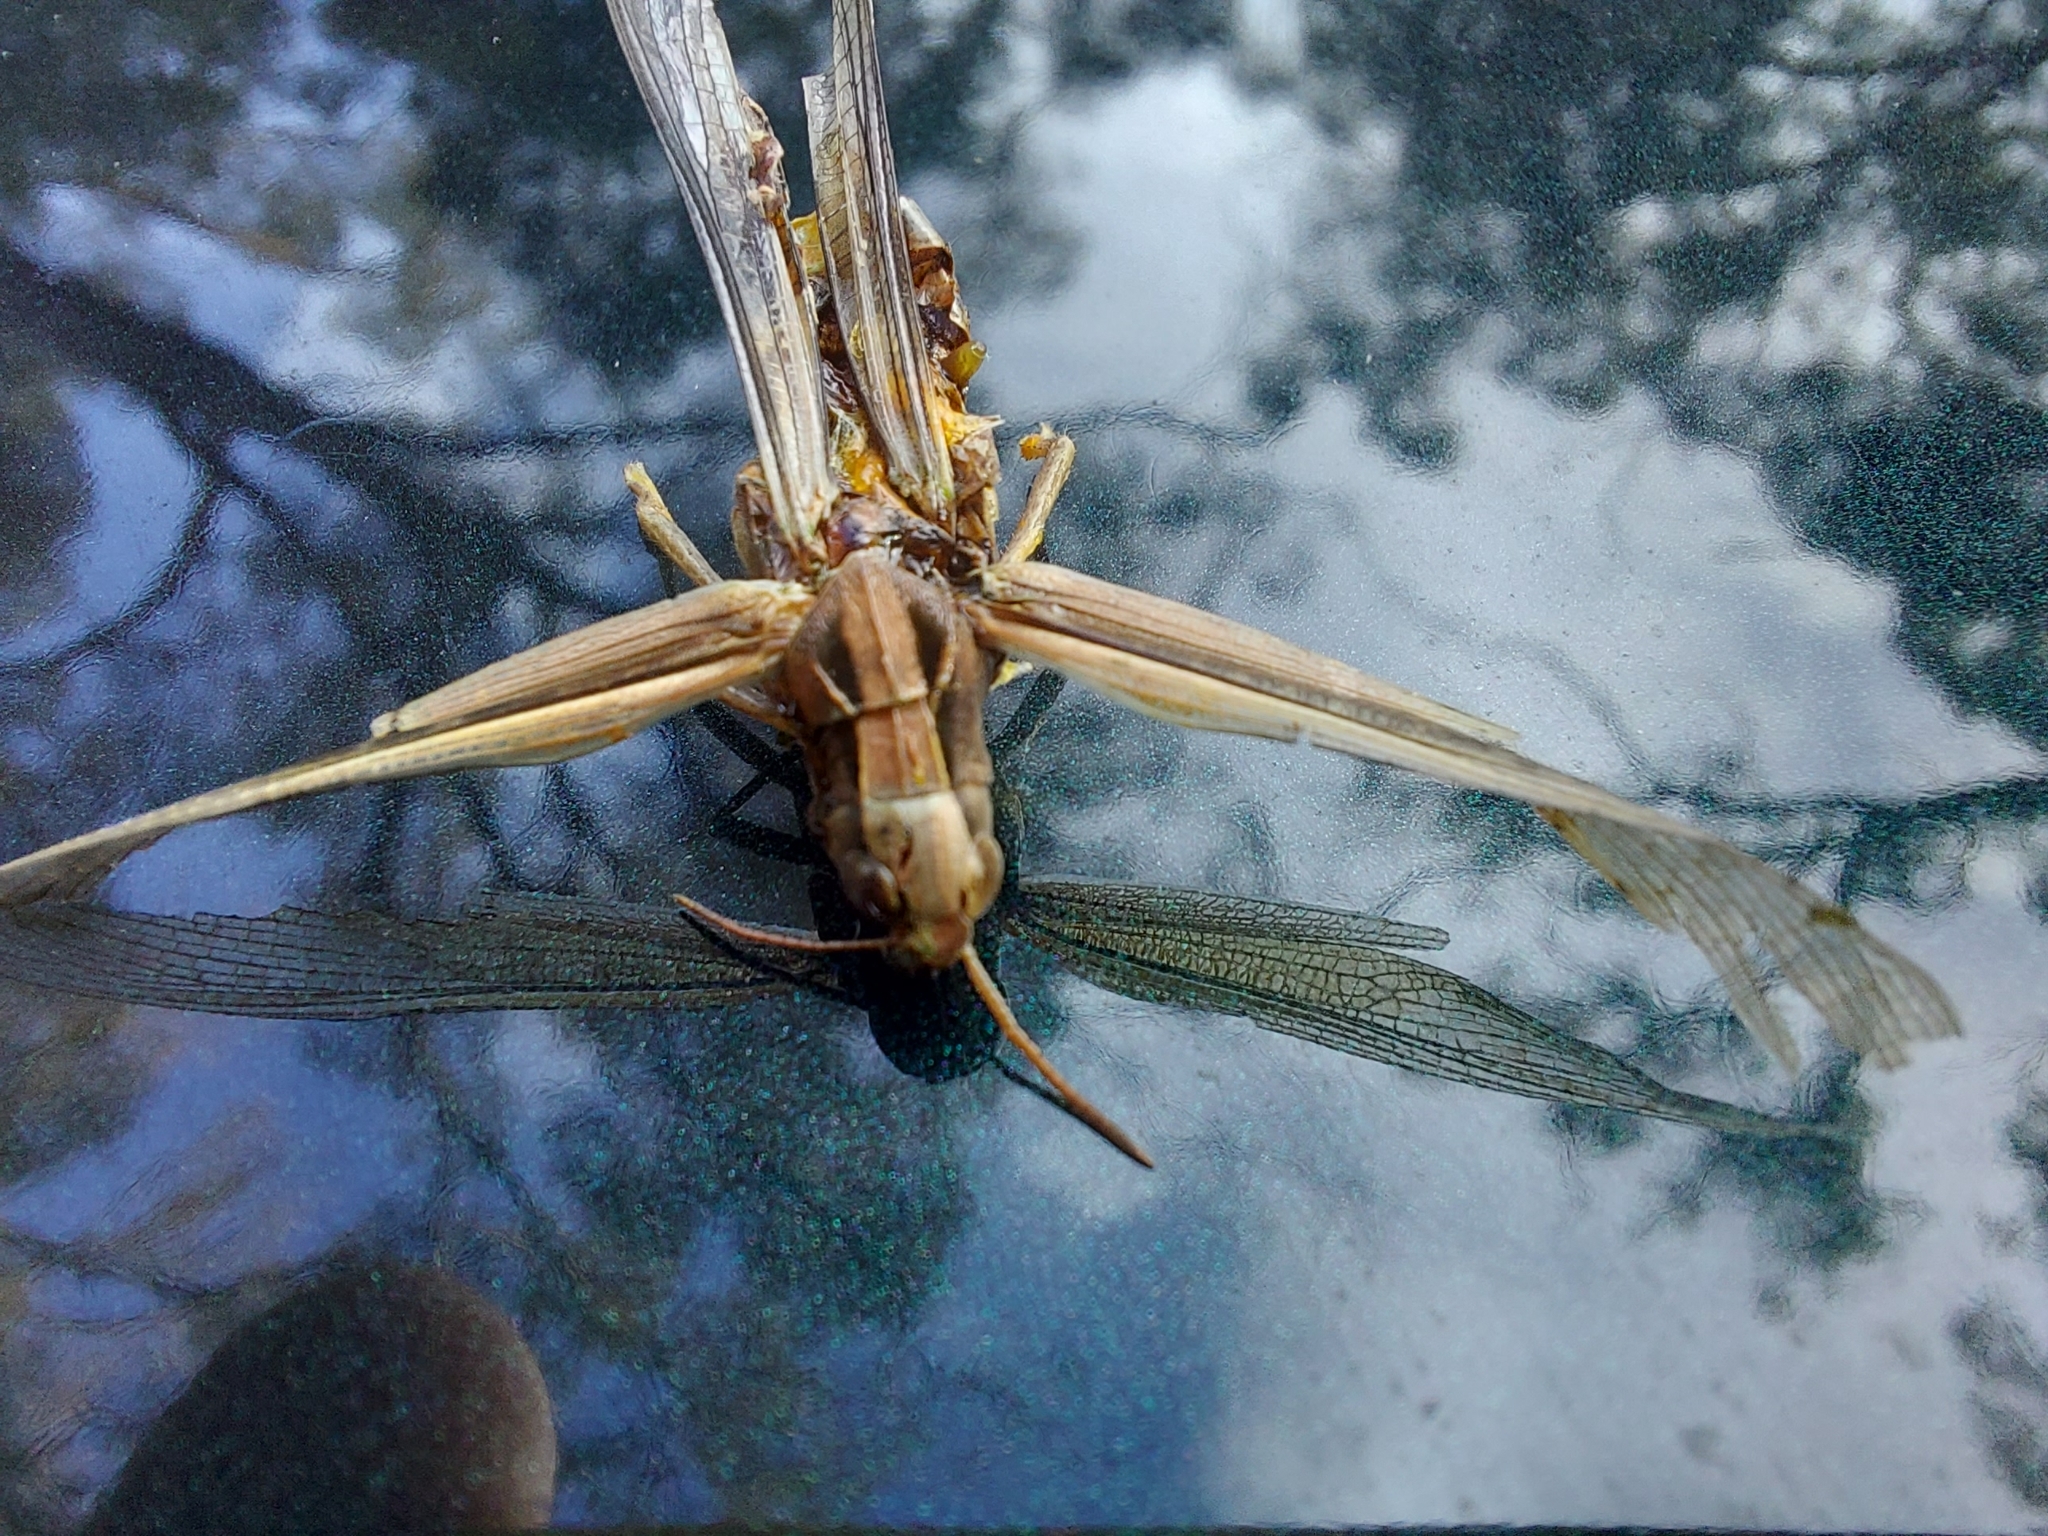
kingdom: Animalia
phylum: Arthropoda
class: Insecta
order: Orthoptera
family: Acrididae
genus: Schizobothrus
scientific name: Schizobothrus flavovittatus
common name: Disappearing grasshopper
